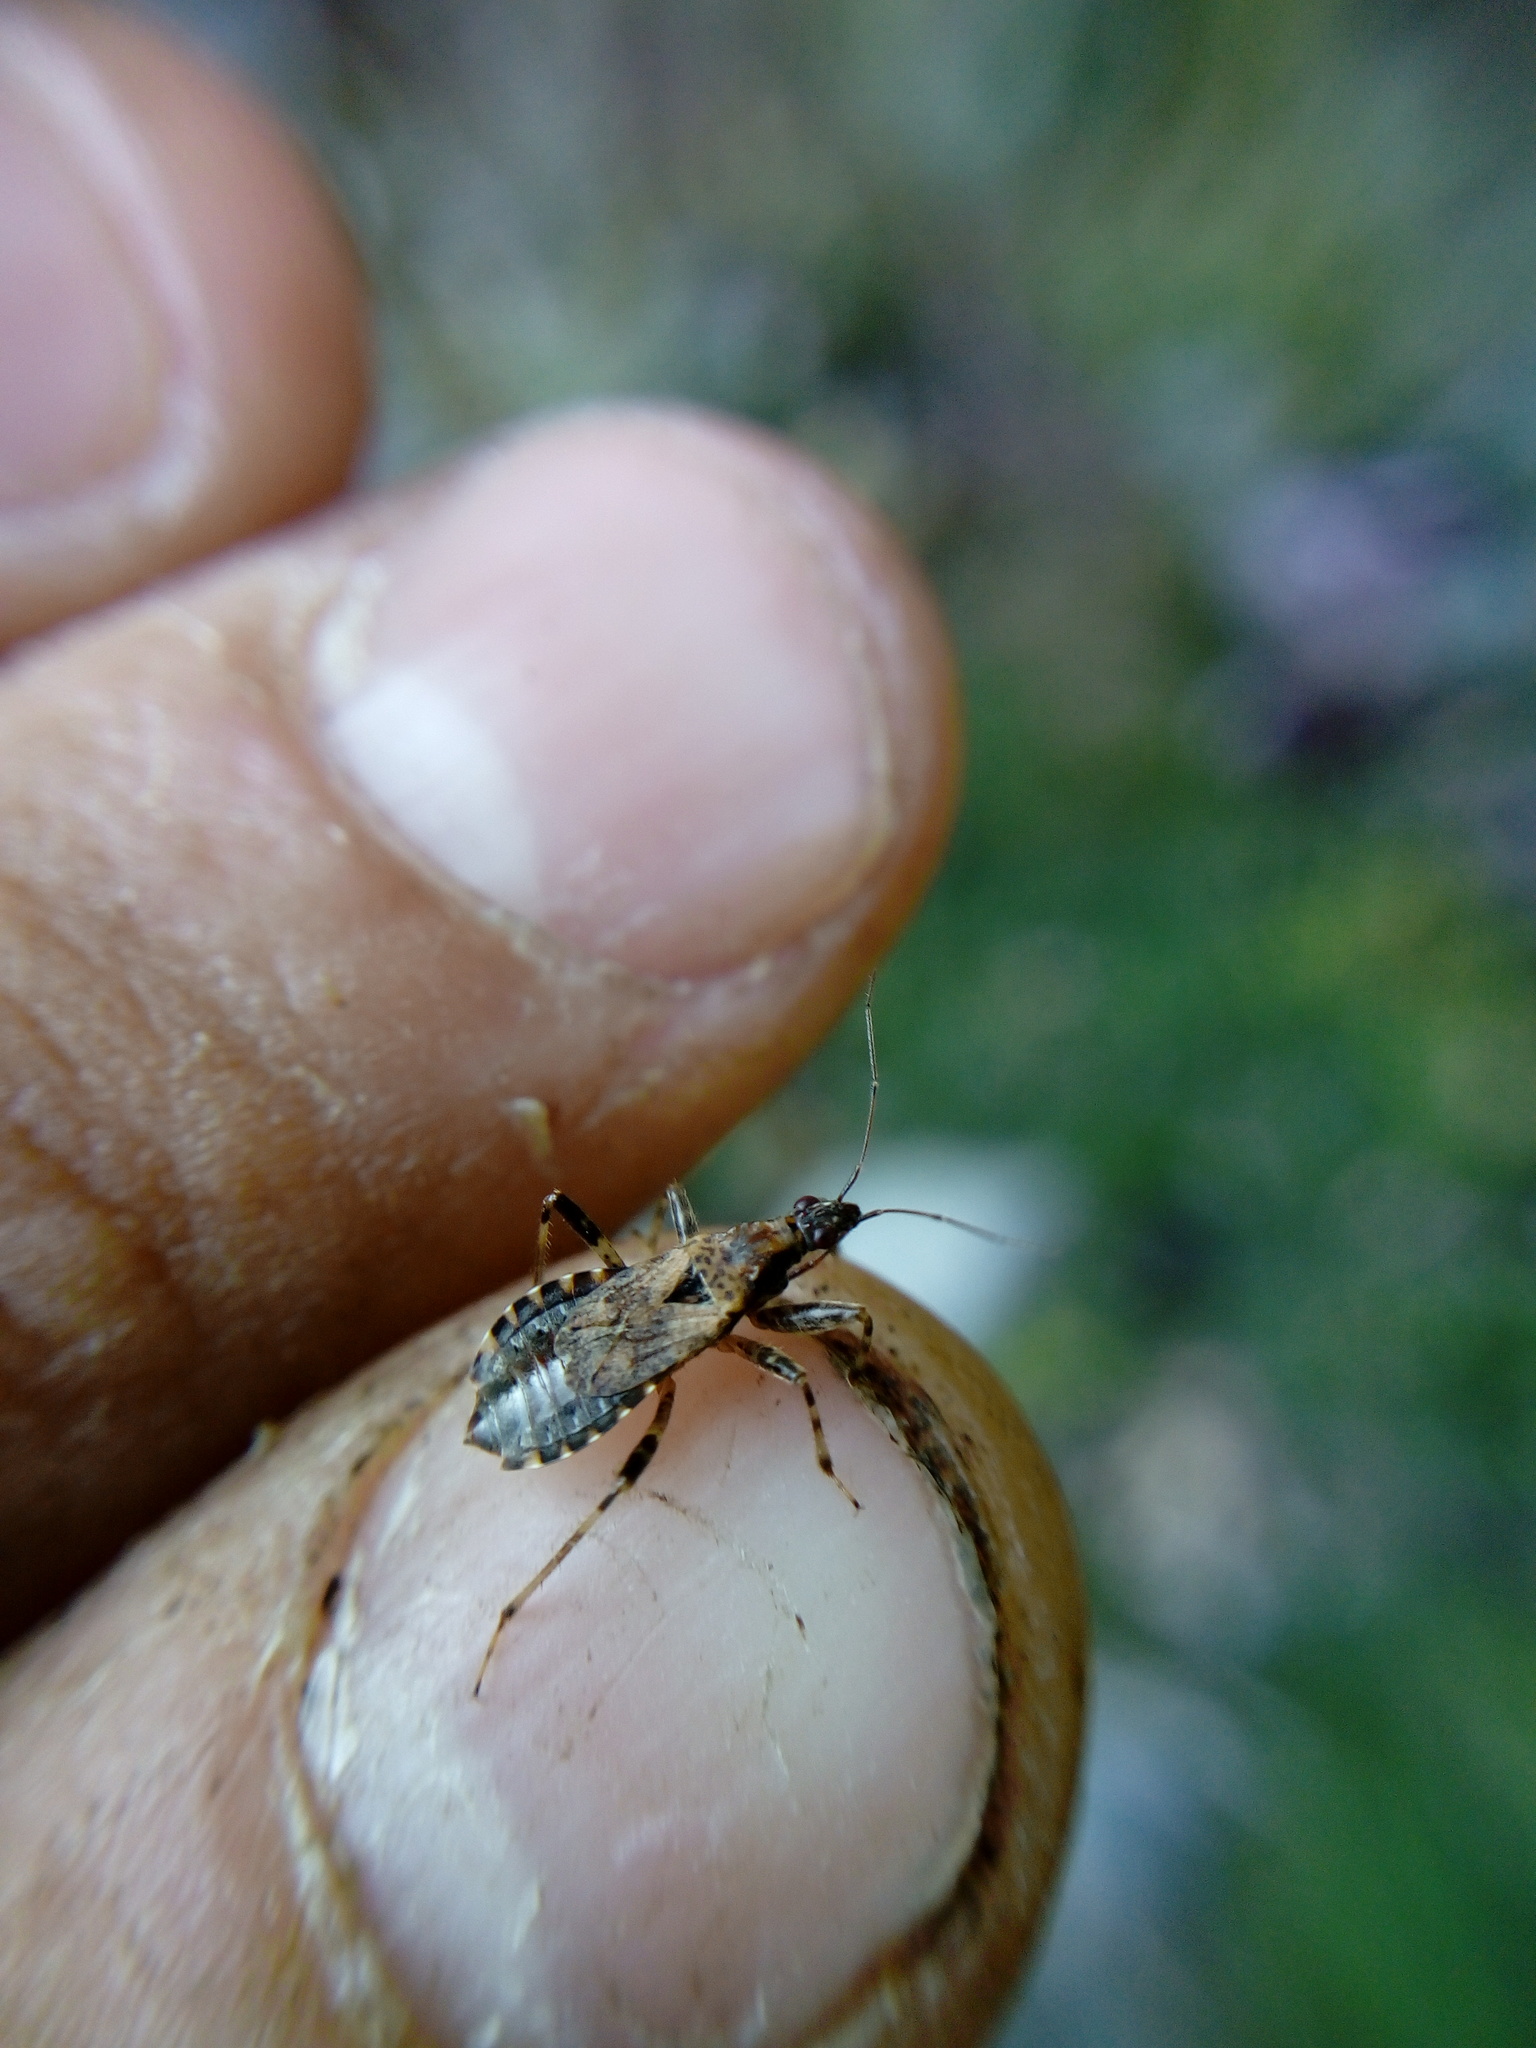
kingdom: Animalia
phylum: Arthropoda
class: Insecta
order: Hemiptera
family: Nabidae
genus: Himacerus
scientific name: Himacerus mirmicoides
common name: Ant damsel bug
